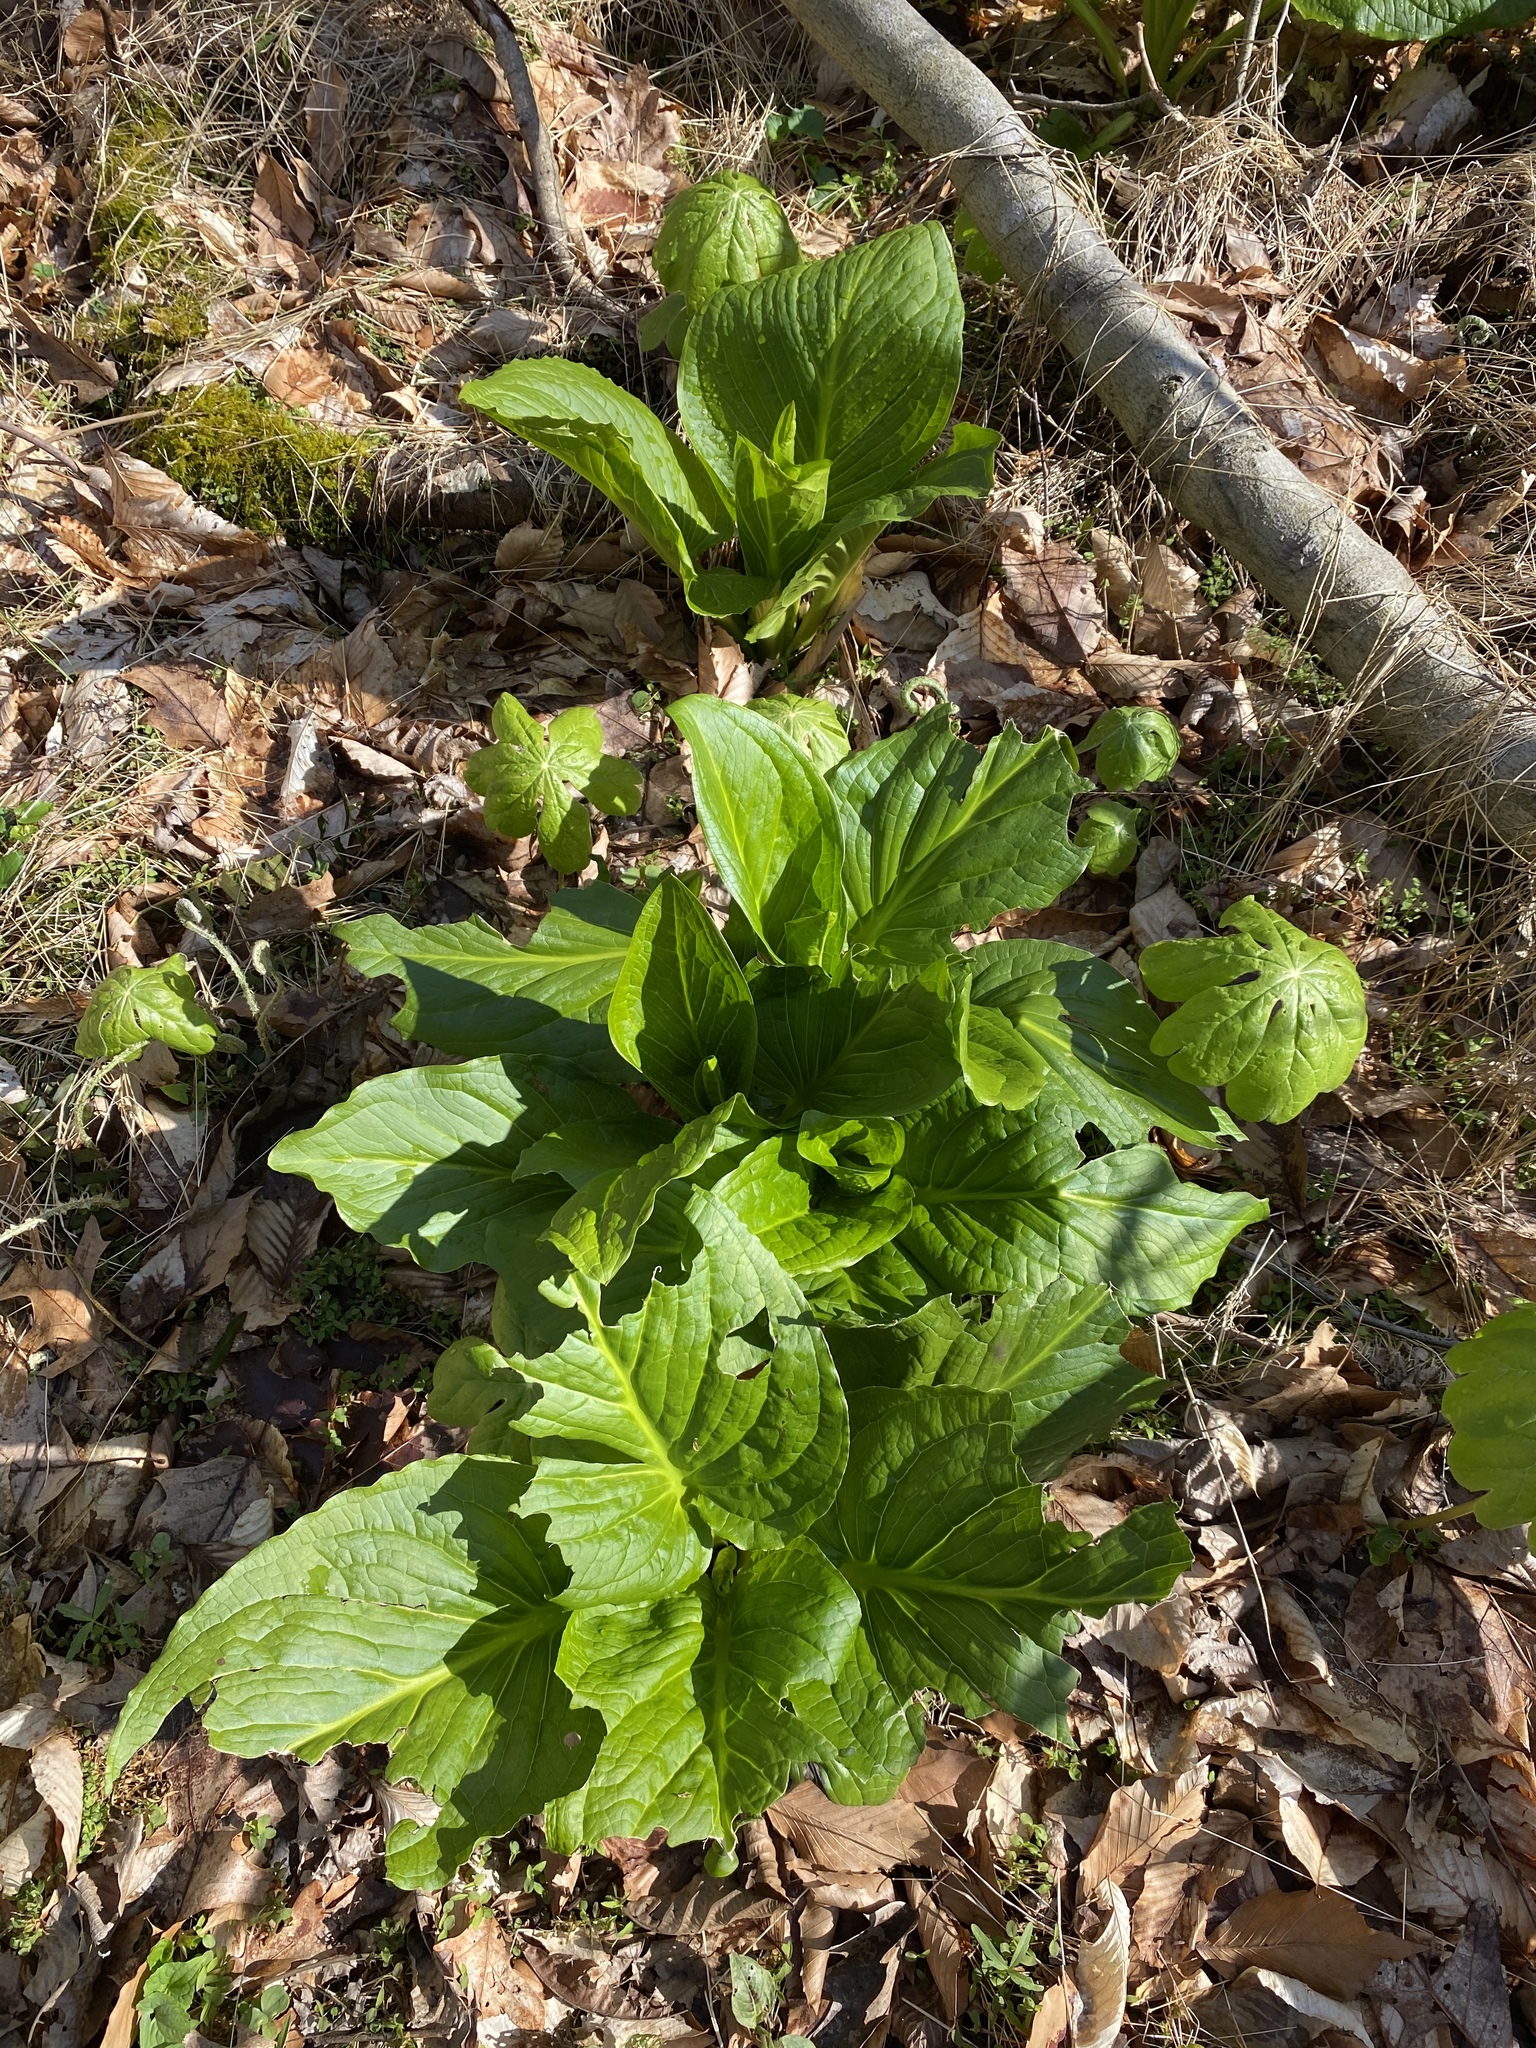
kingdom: Plantae
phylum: Tracheophyta
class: Liliopsida
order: Alismatales
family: Araceae
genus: Symplocarpus
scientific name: Symplocarpus foetidus
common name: Eastern skunk cabbage
